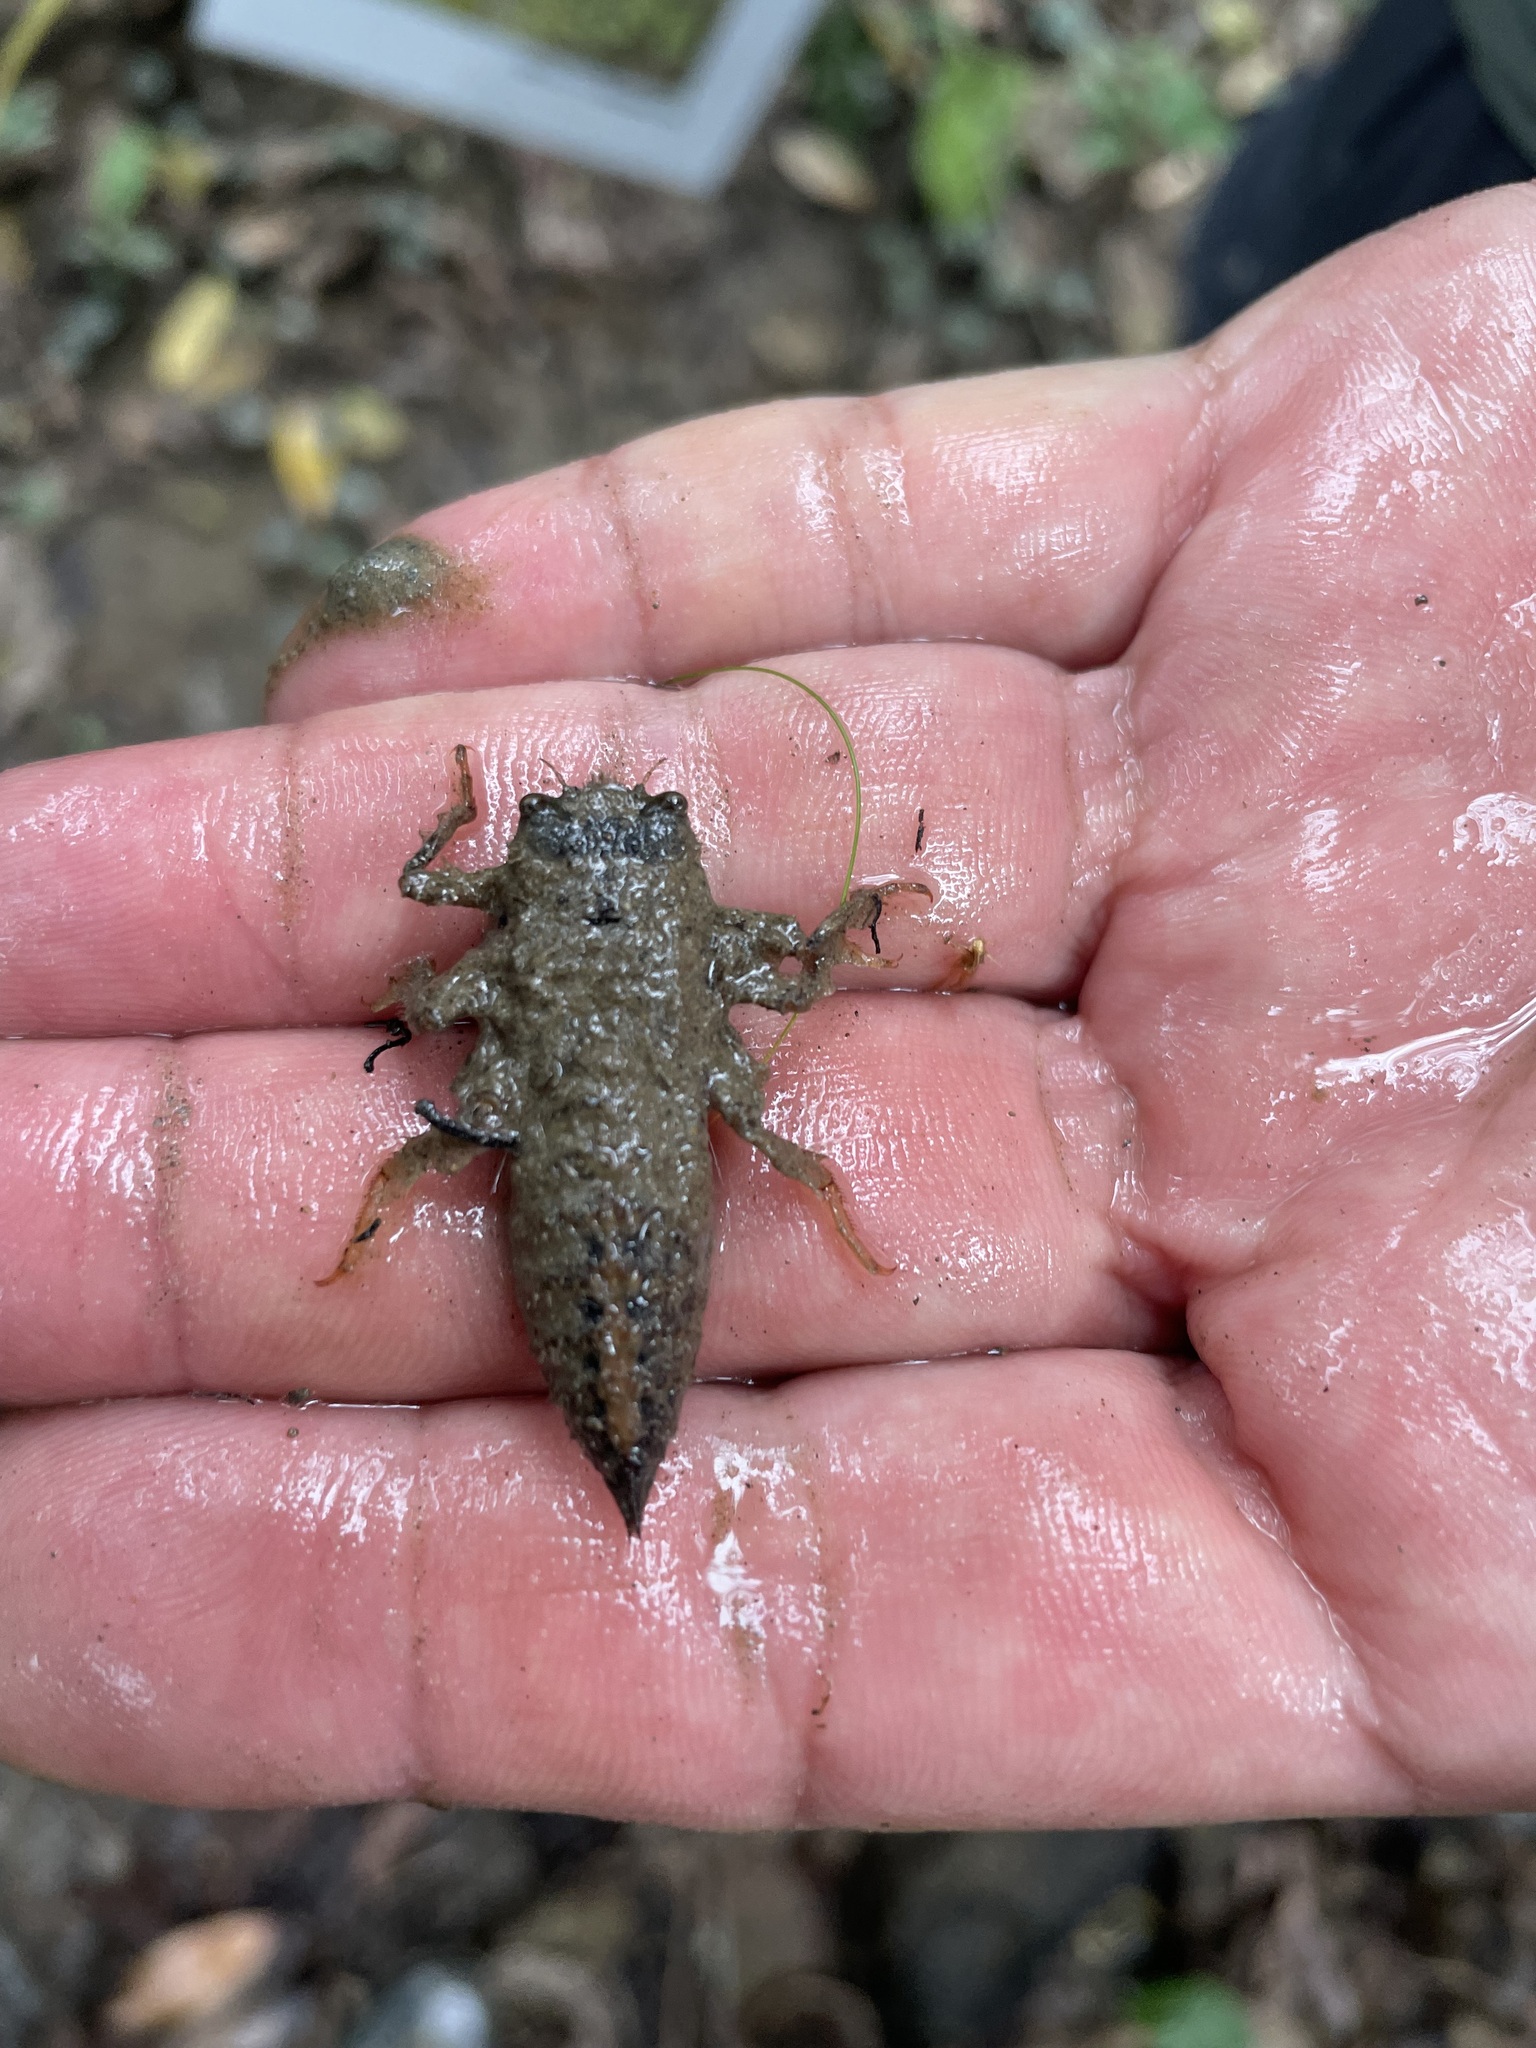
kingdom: Animalia
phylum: Arthropoda
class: Insecta
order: Odonata
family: Cordulegastridae
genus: Anotogaster
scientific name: Anotogaster klossi
